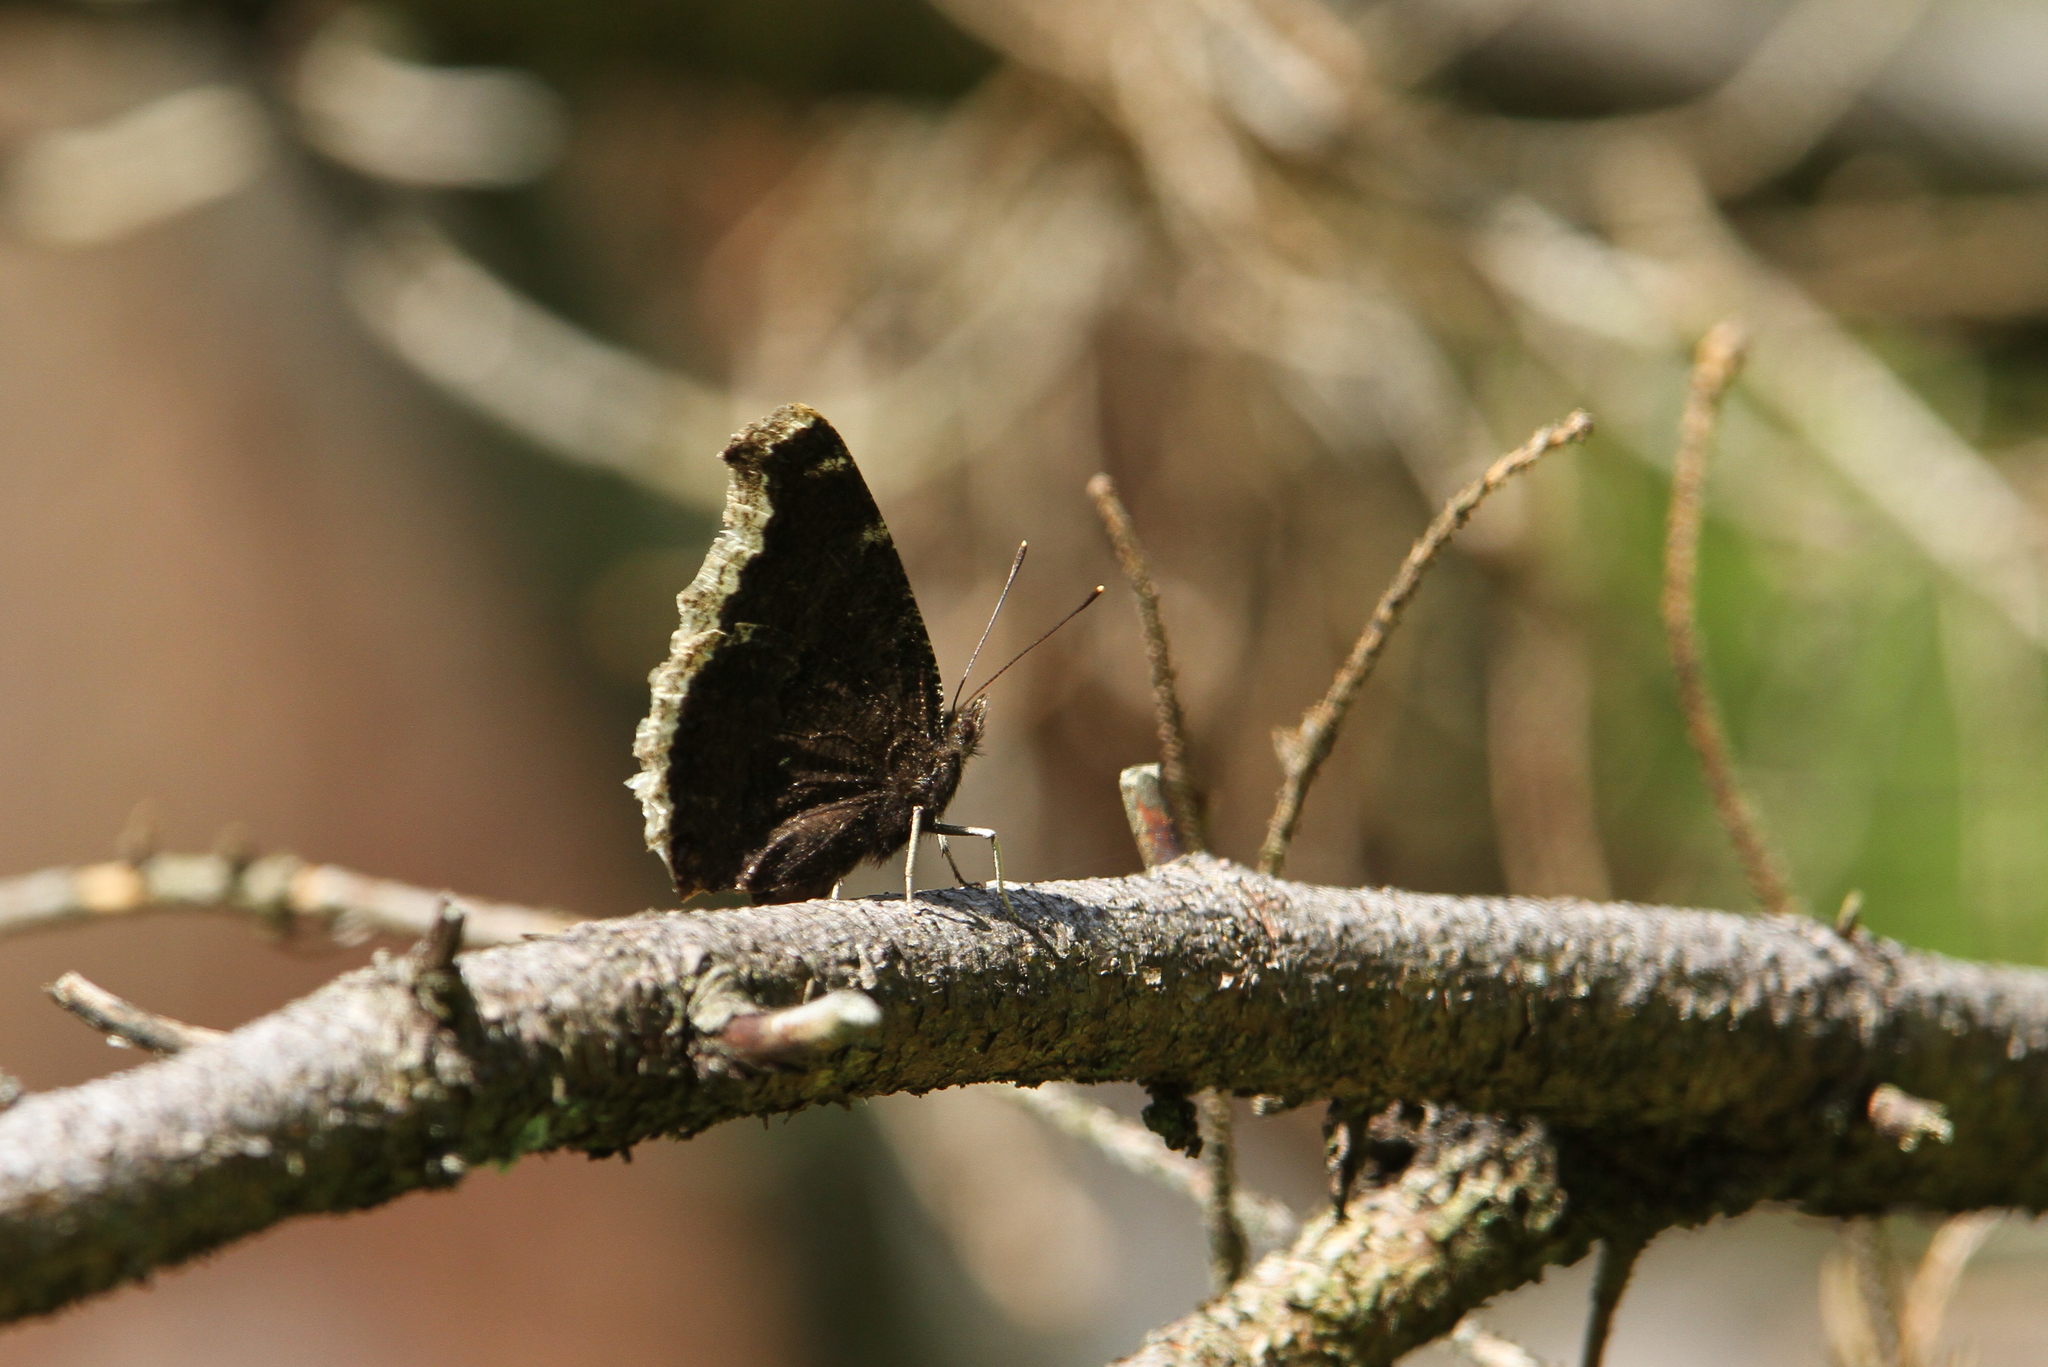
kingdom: Animalia
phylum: Arthropoda
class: Insecta
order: Lepidoptera
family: Nymphalidae
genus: Nymphalis
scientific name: Nymphalis antiopa
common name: Camberwell beauty
